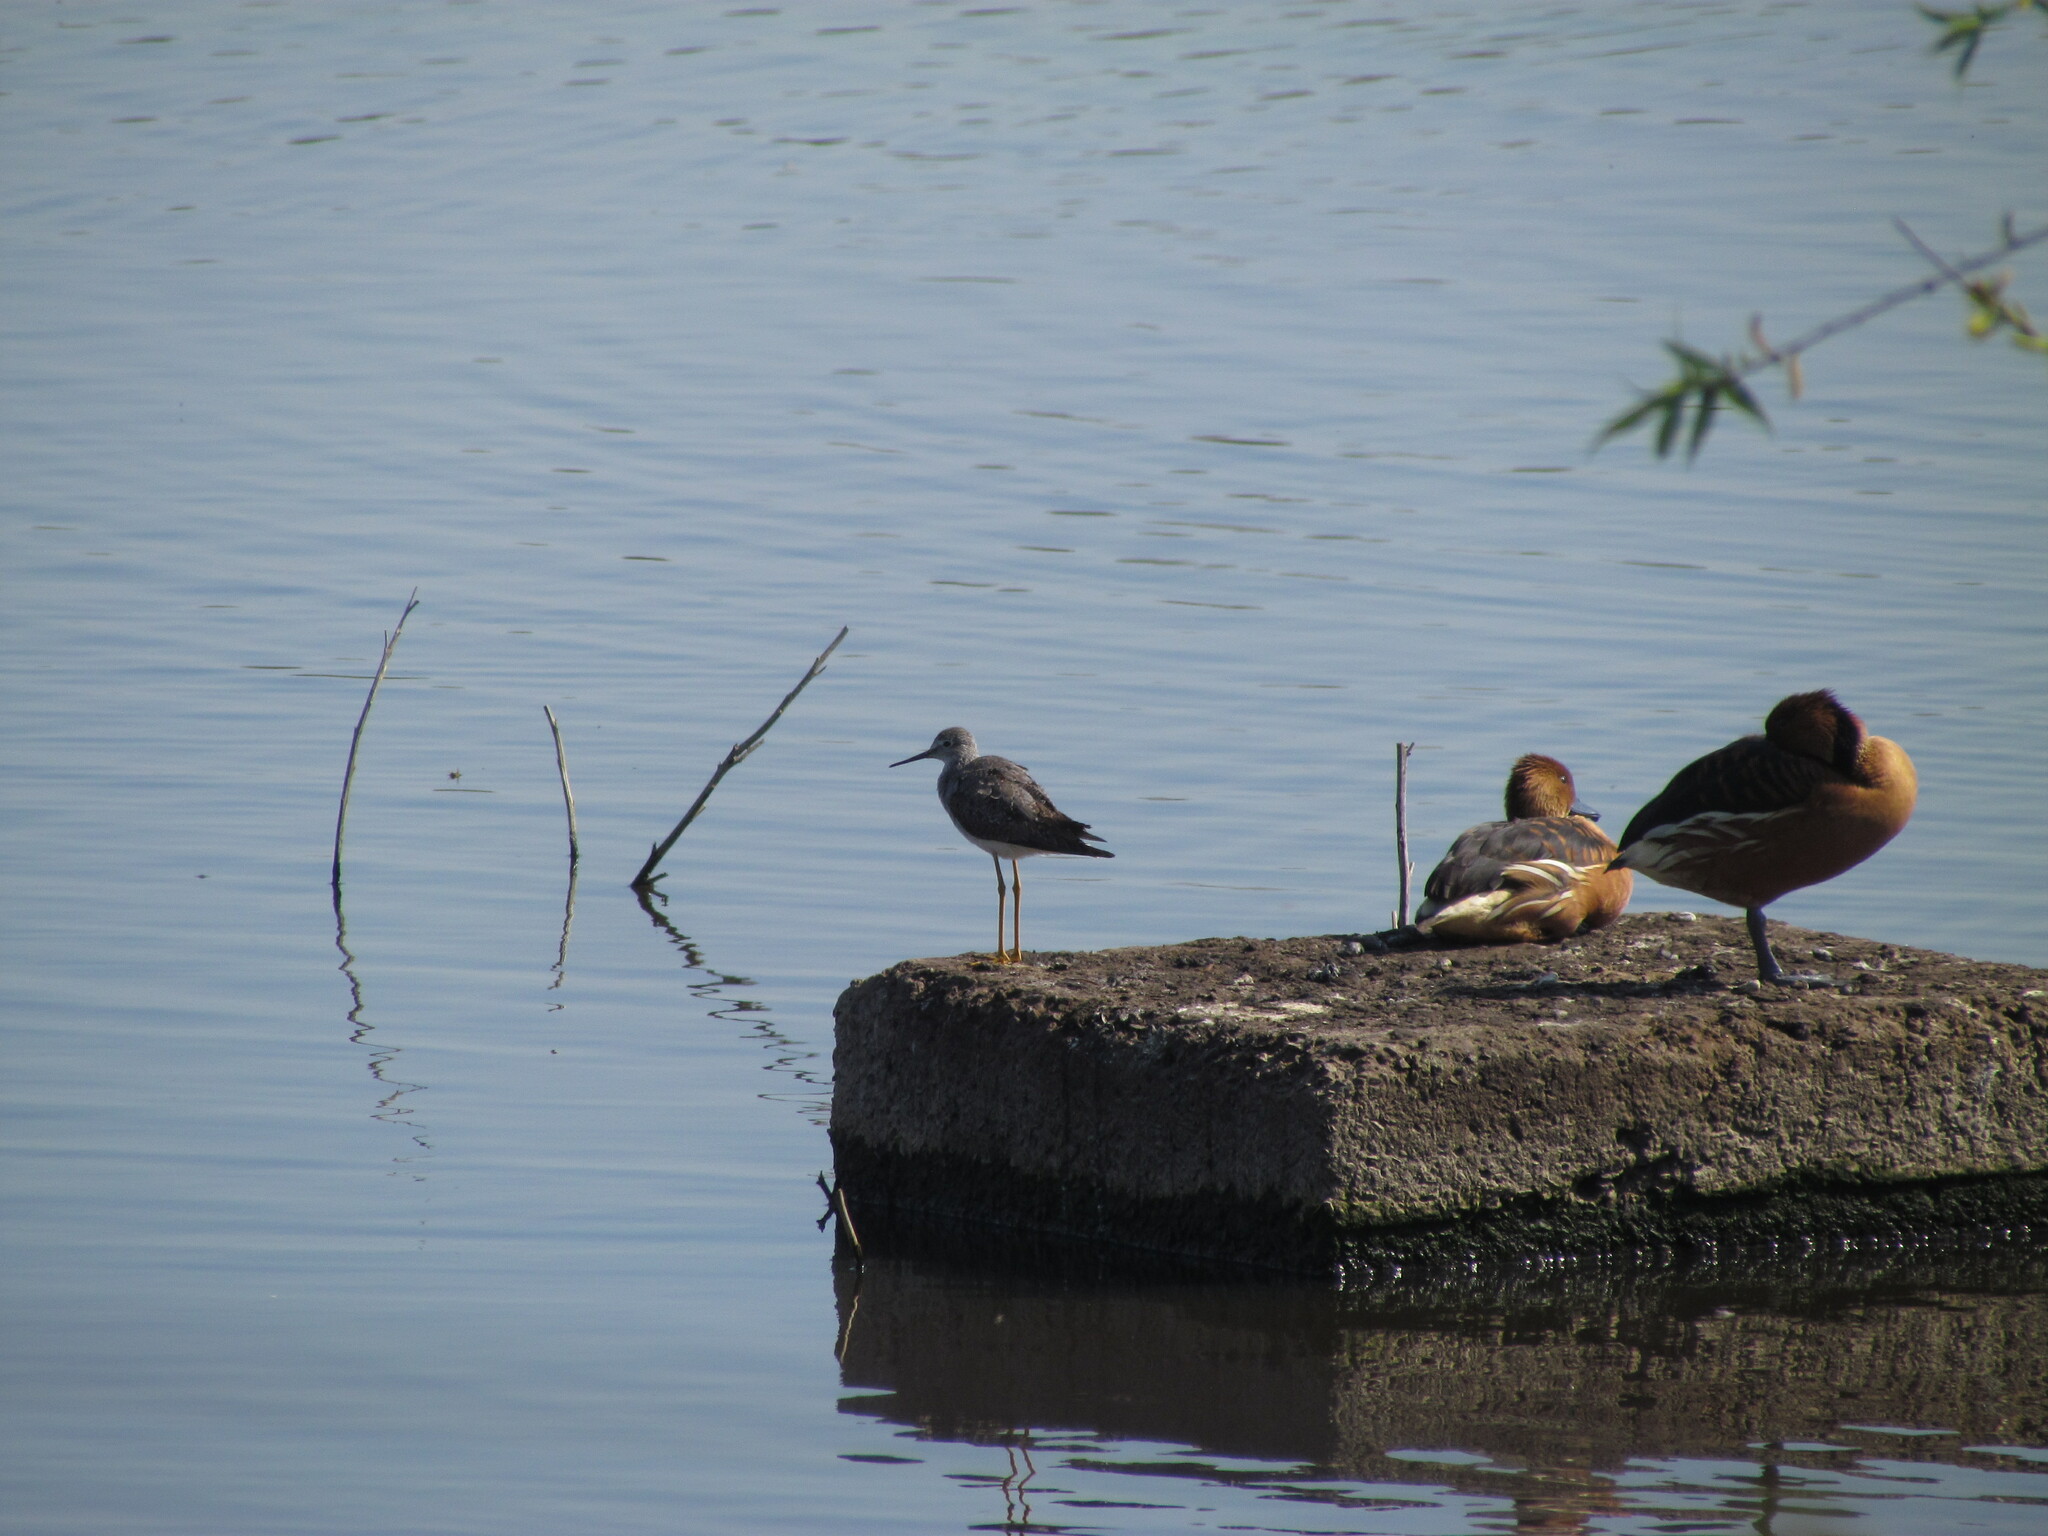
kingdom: Animalia
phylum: Chordata
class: Aves
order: Charadriiformes
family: Scolopacidae
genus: Tringa
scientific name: Tringa melanoleuca
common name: Greater yellowlegs
